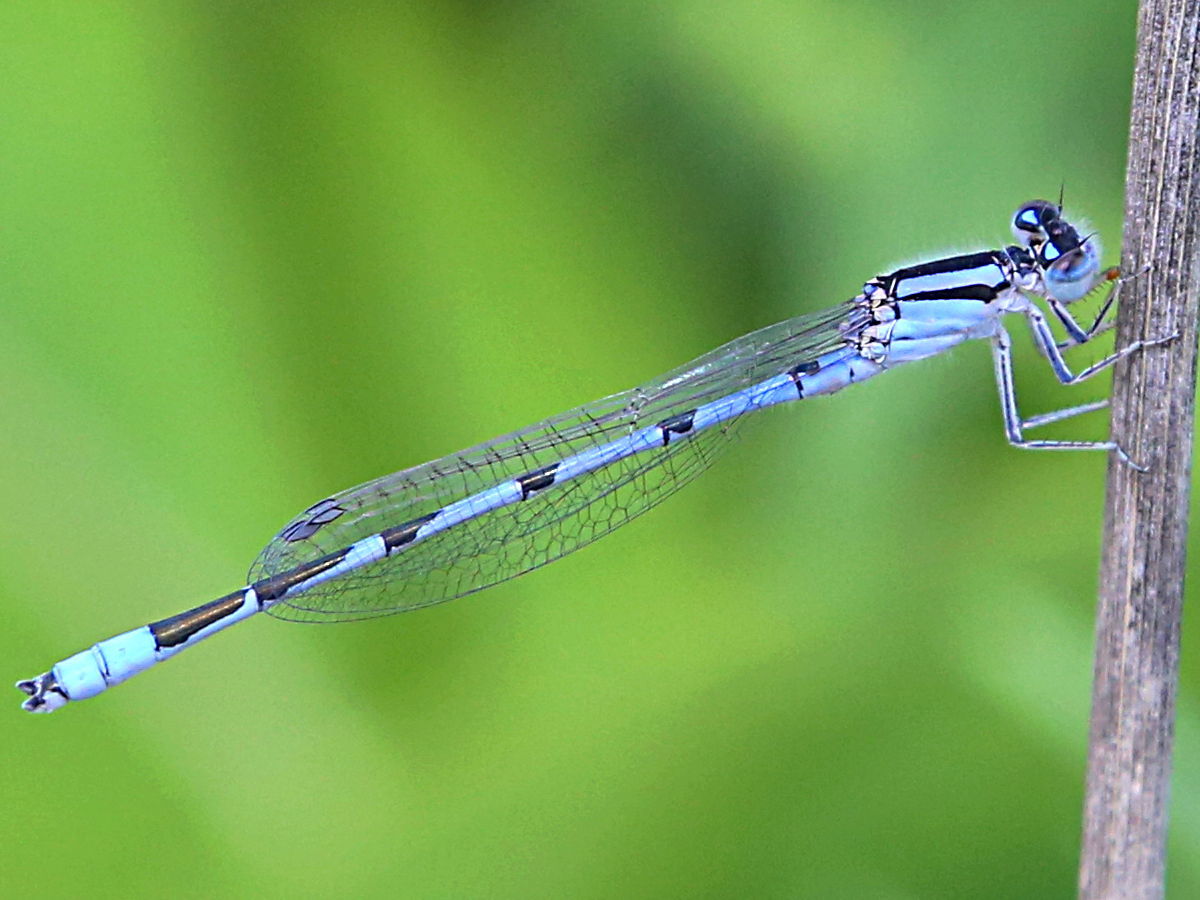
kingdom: Animalia
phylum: Arthropoda
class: Insecta
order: Odonata
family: Coenagrionidae
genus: Enallagma
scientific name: Enallagma civile
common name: Damselfly
